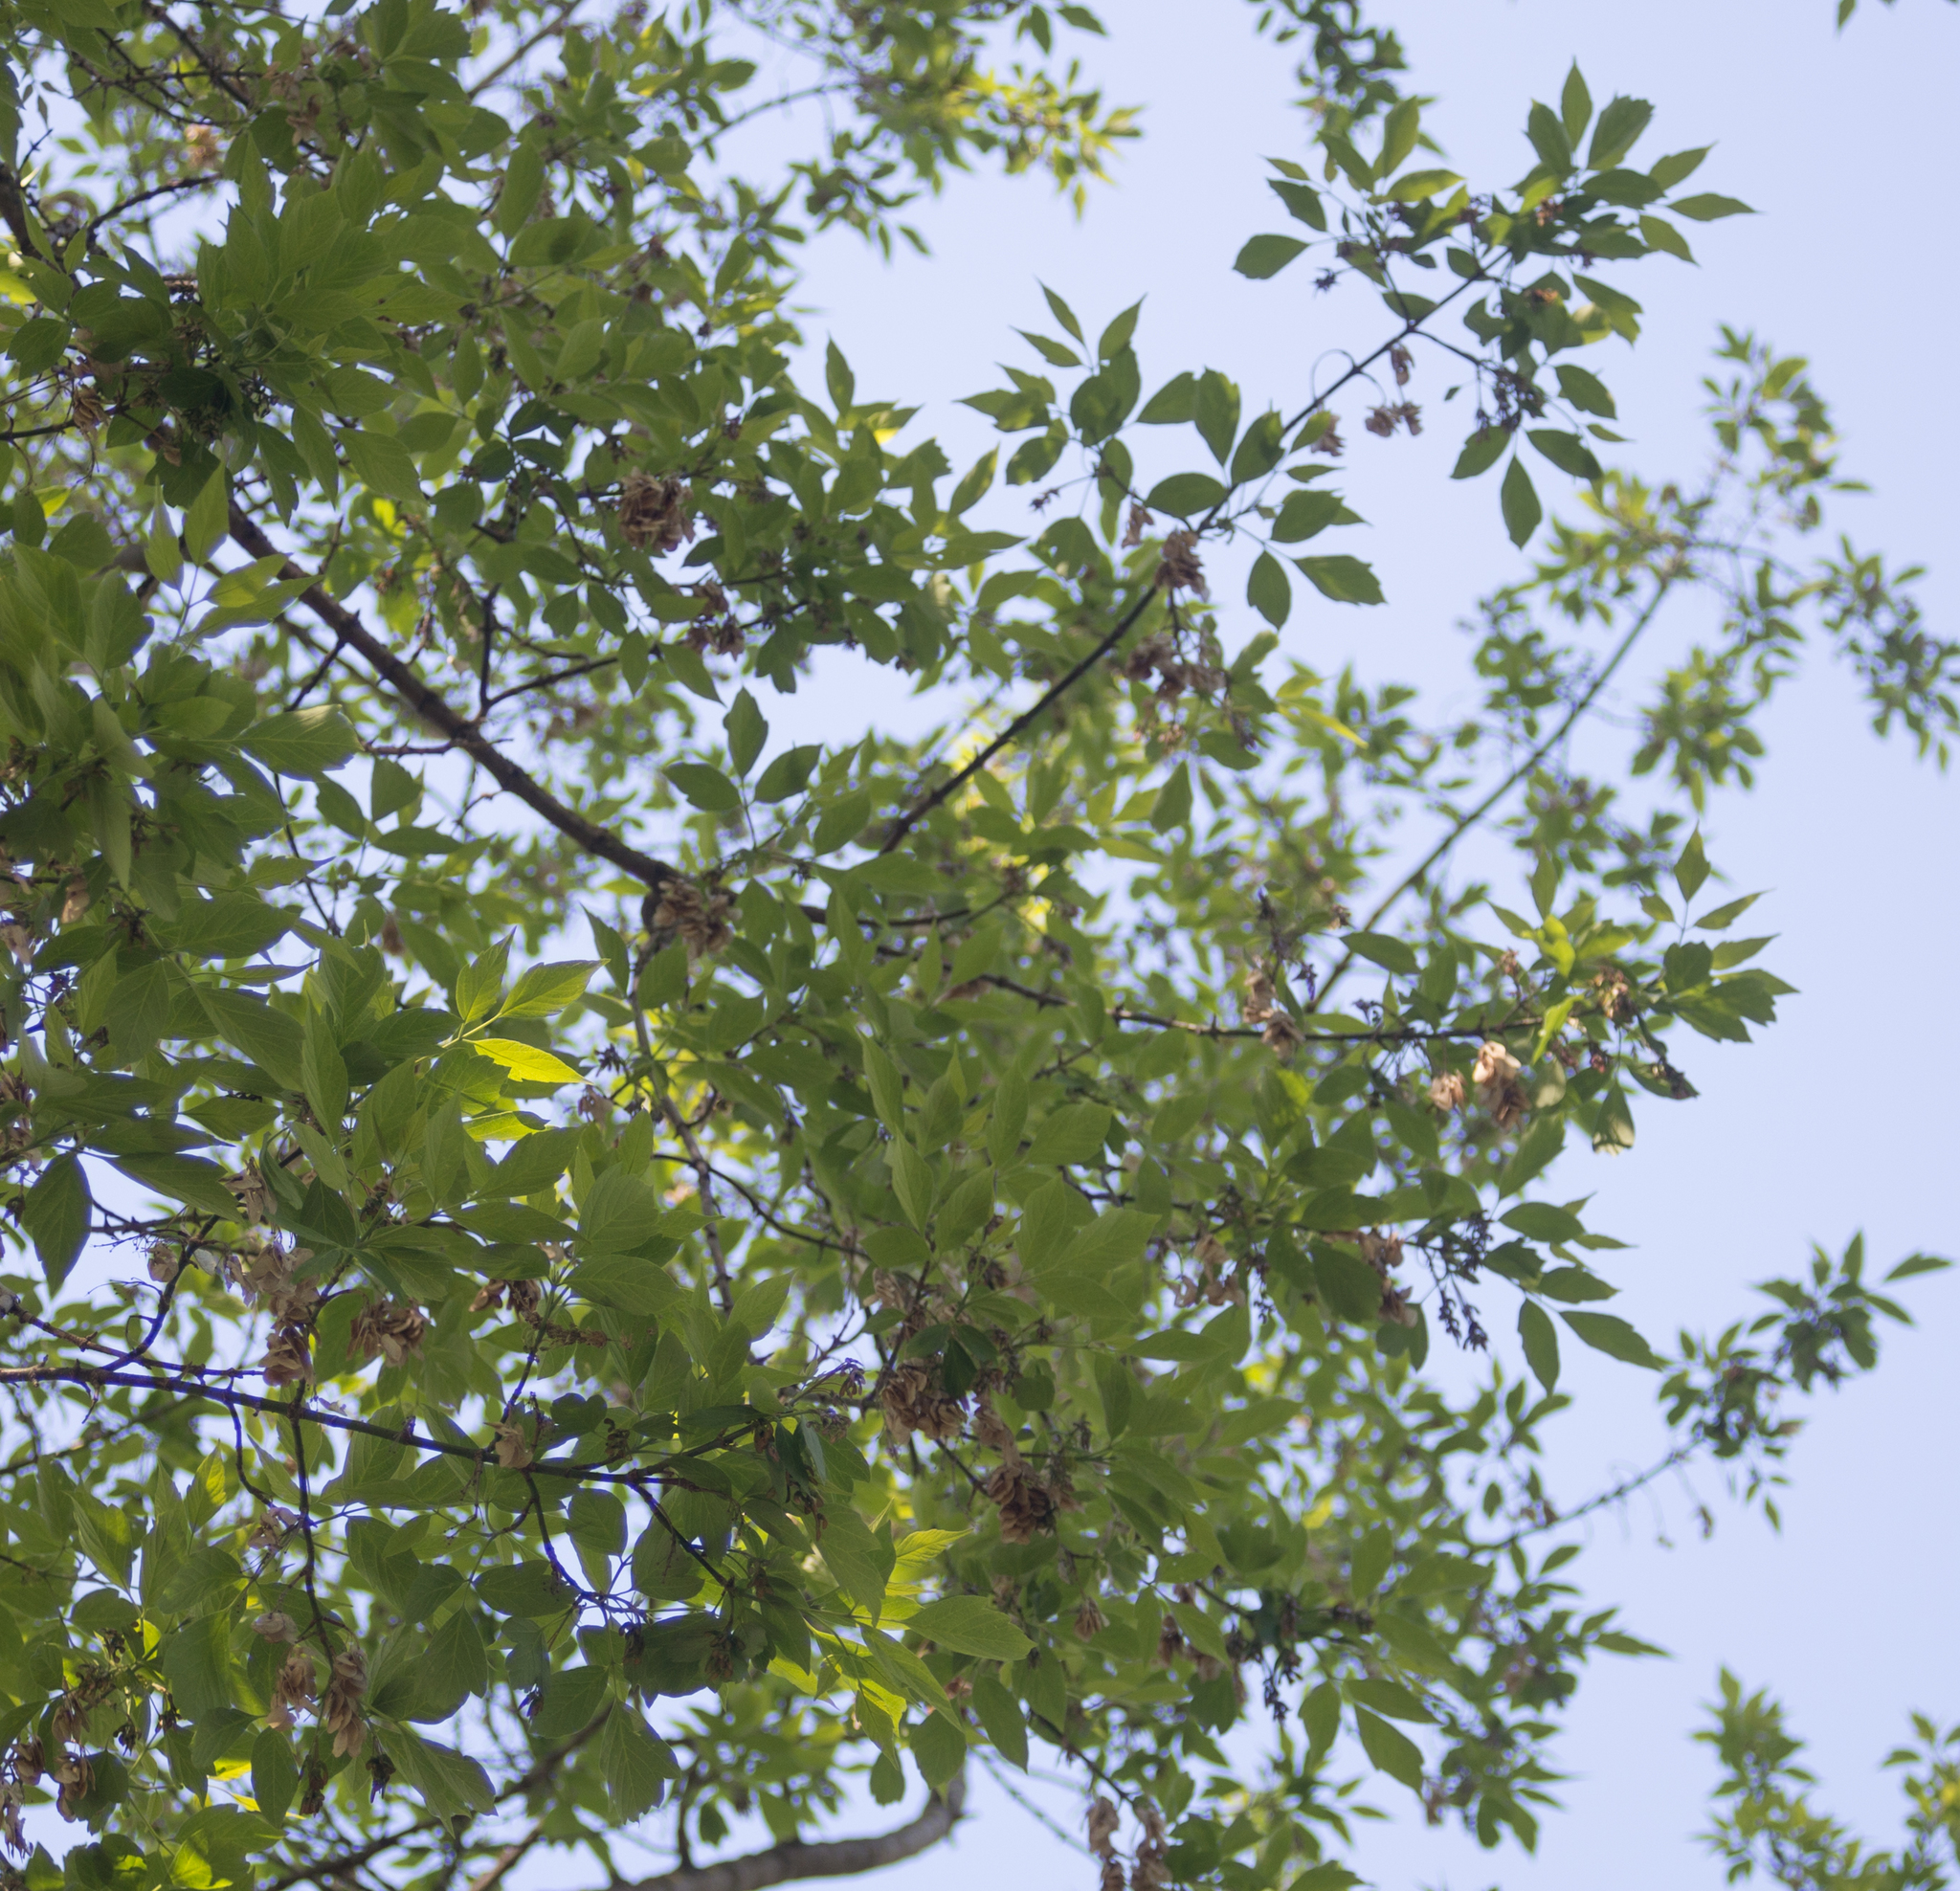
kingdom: Plantae
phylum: Tracheophyta
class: Magnoliopsida
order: Sapindales
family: Sapindaceae
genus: Acer
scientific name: Acer negundo
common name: Ashleaf maple
